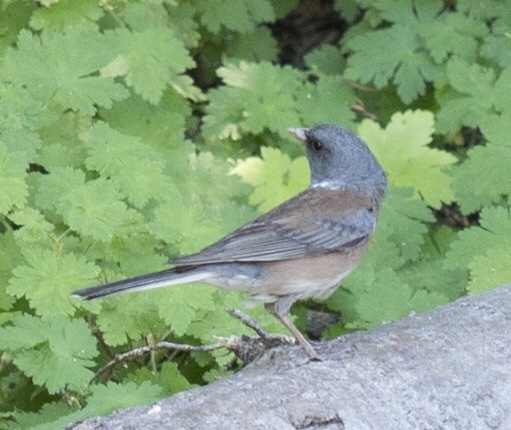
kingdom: Animalia
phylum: Chordata
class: Aves
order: Passeriformes
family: Passerellidae
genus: Junco
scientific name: Junco hyemalis
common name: Dark-eyed junco
